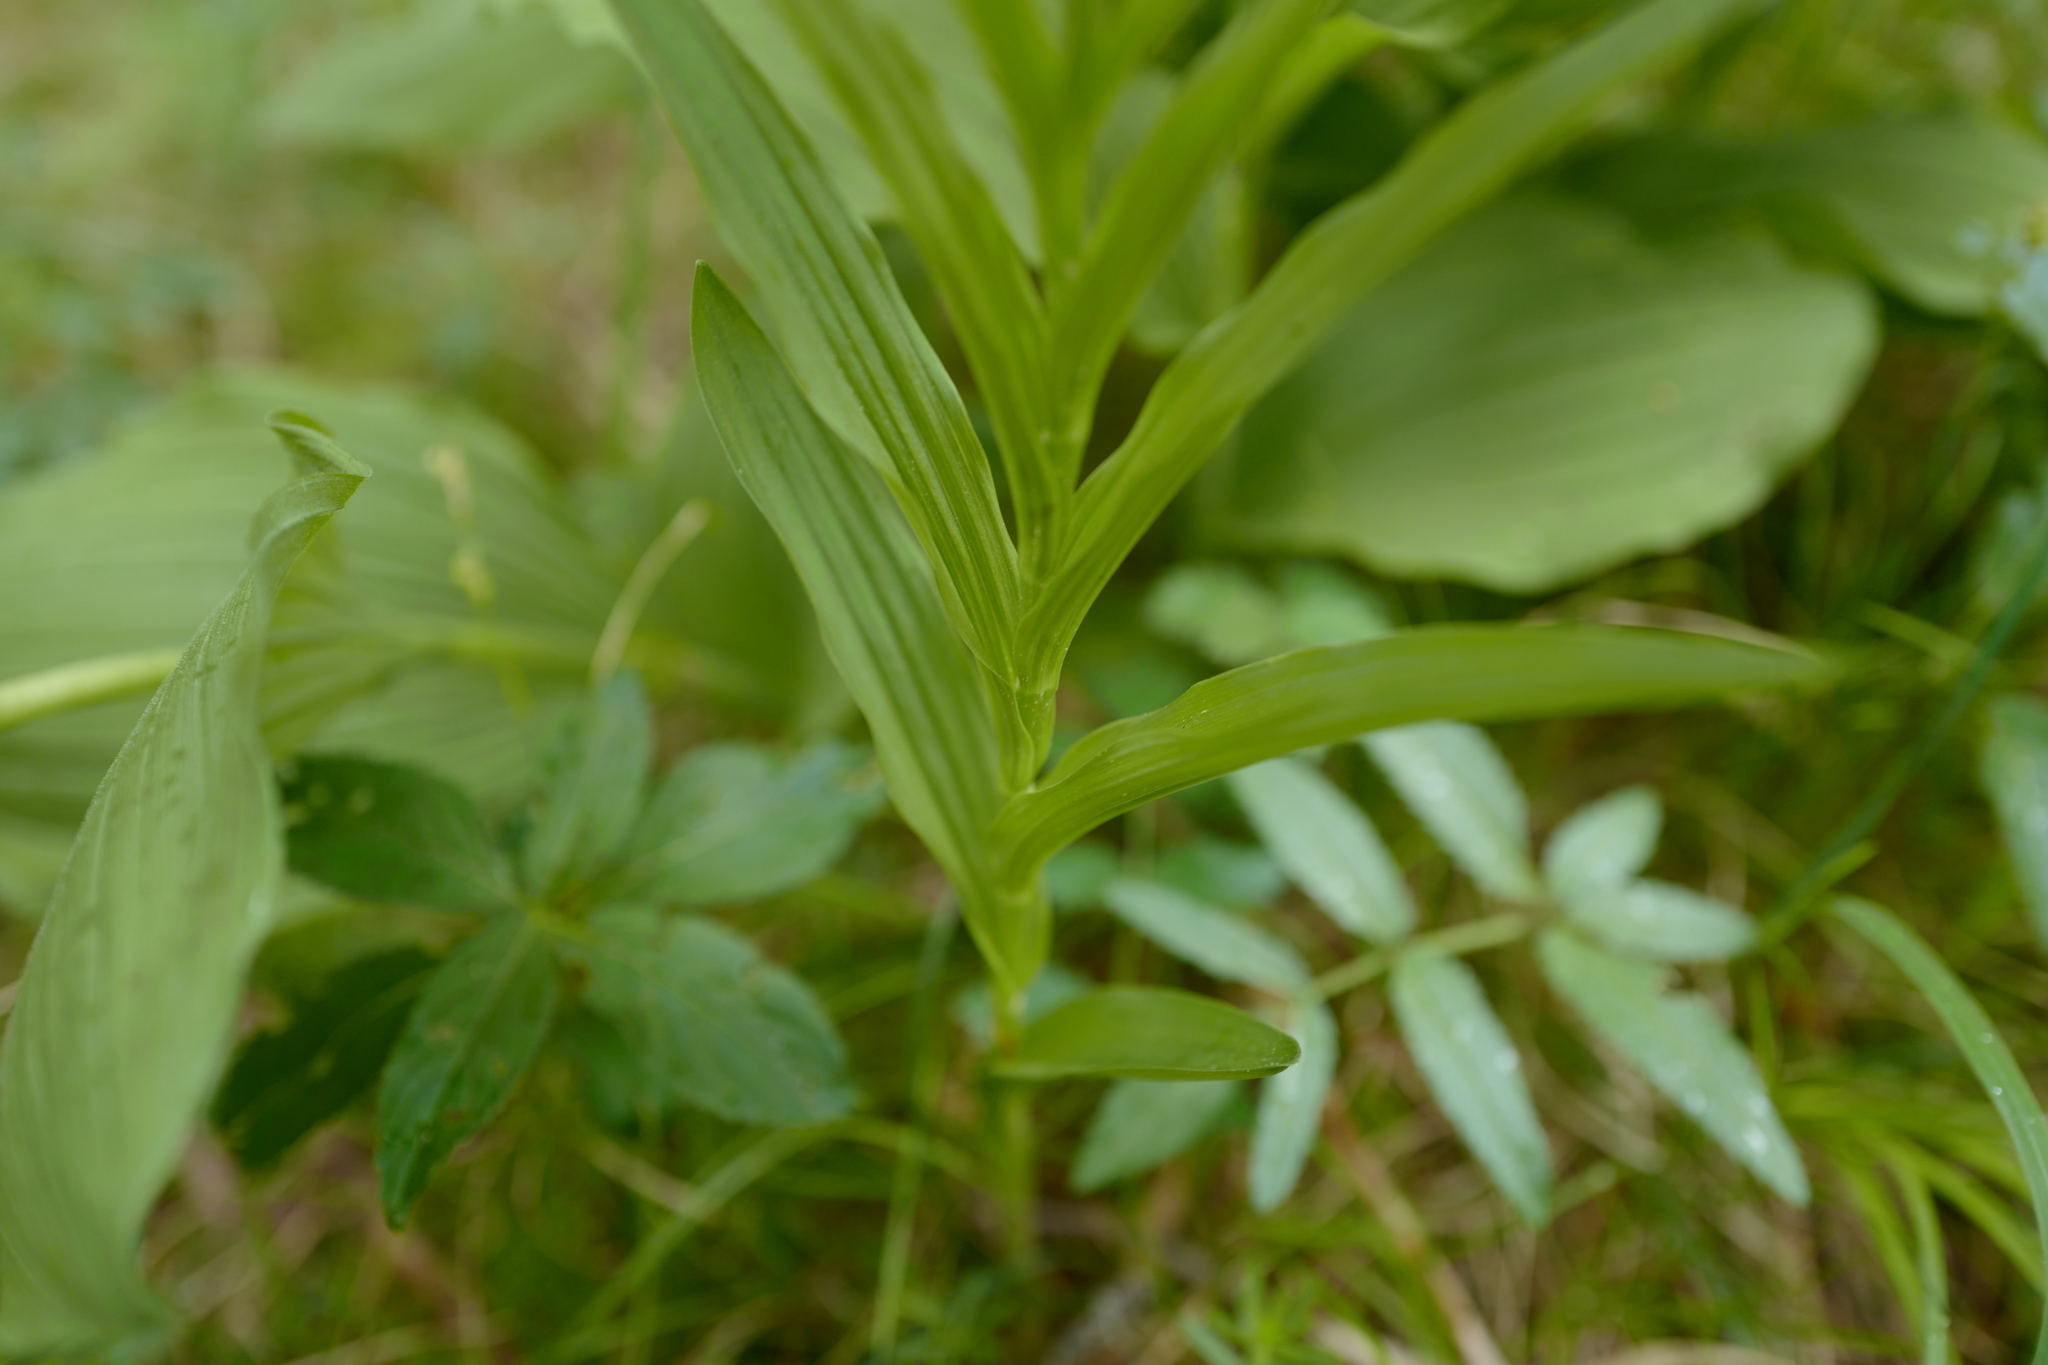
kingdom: Plantae
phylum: Tracheophyta
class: Liliopsida
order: Asparagales
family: Orchidaceae
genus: Cephalanthera
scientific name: Cephalanthera longifolia
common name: Narrow-leaved helleborine
